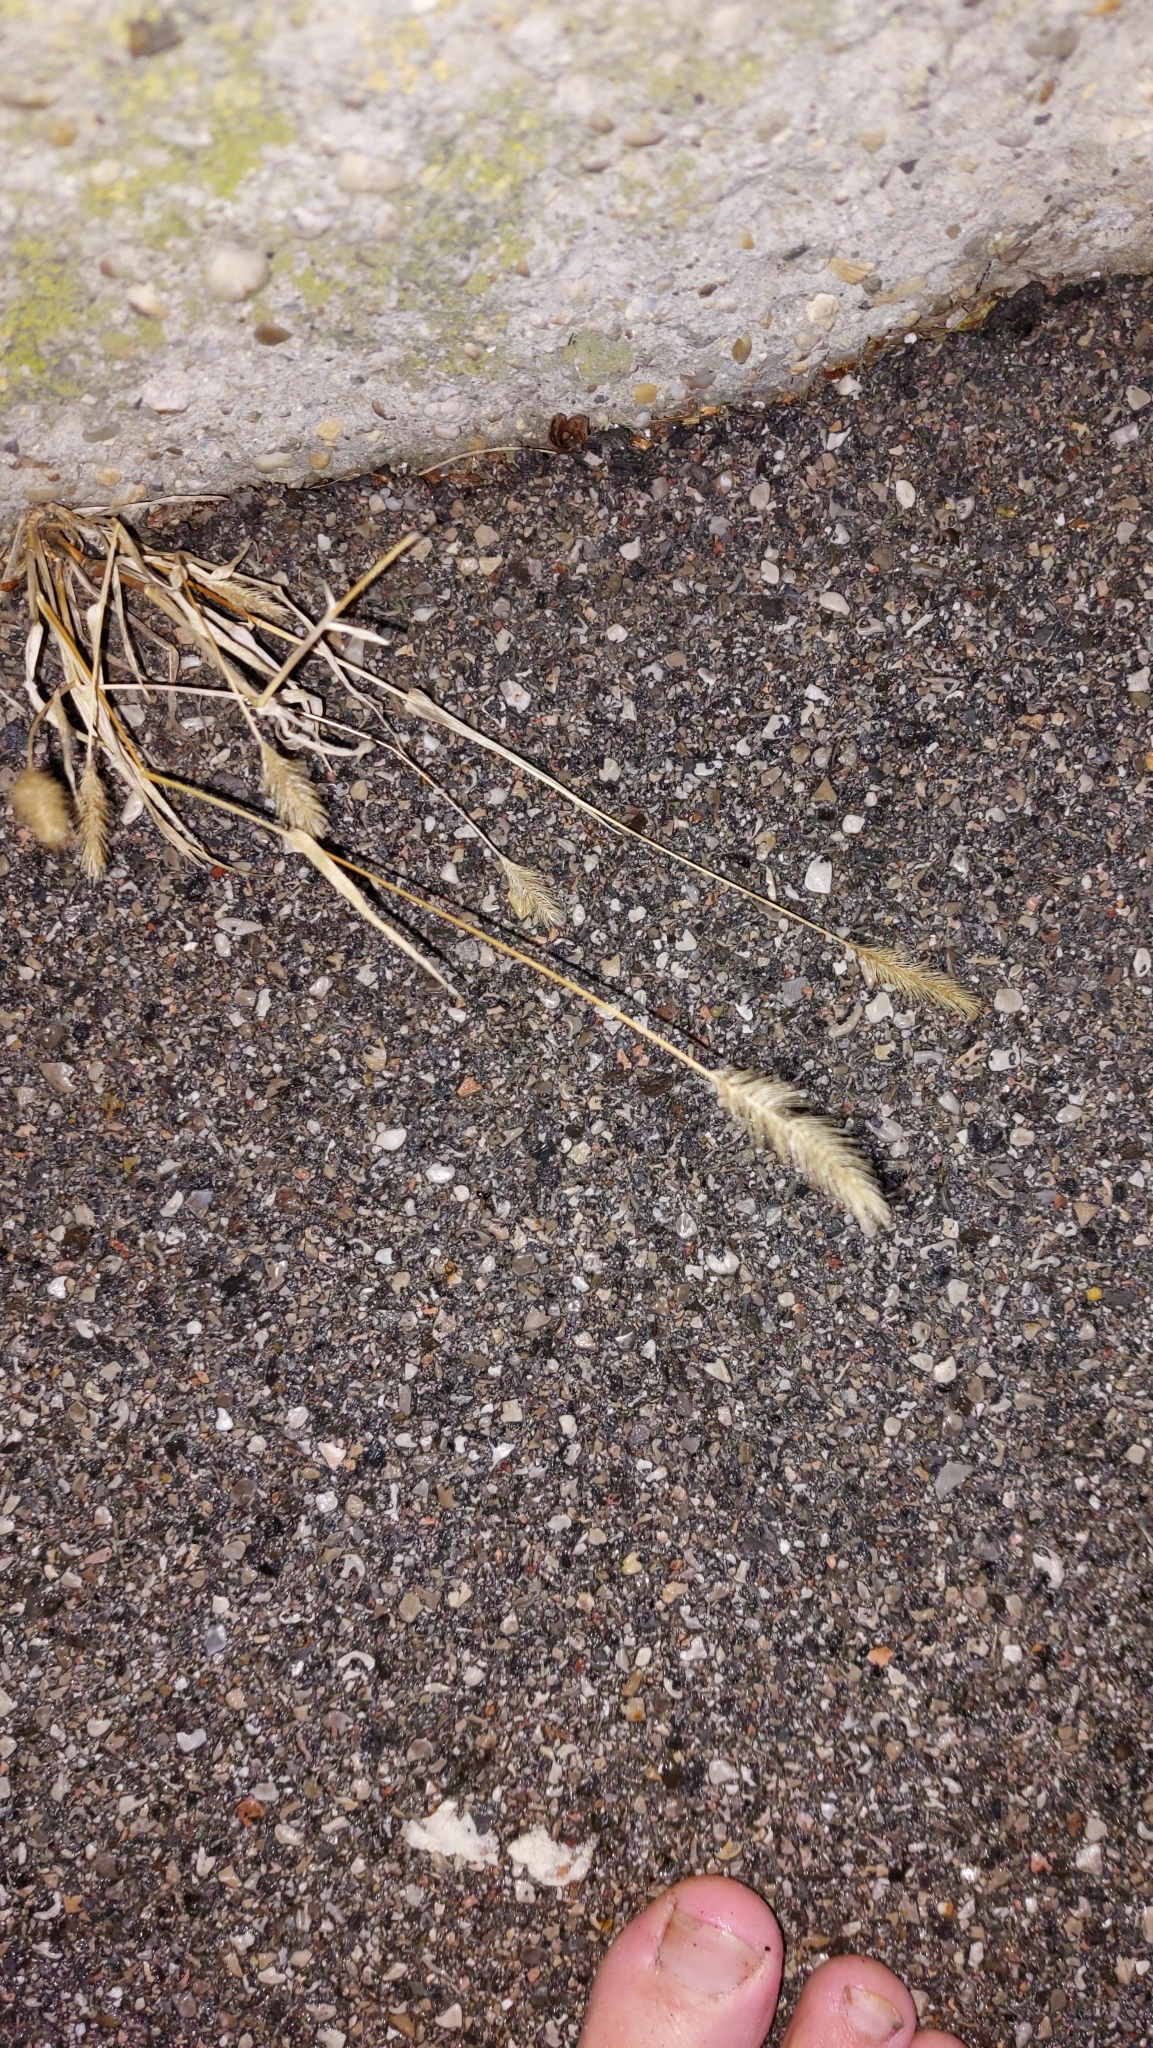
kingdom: Plantae
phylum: Tracheophyta
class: Liliopsida
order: Poales
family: Poaceae
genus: Setaria
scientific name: Setaria viridis
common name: Green bristlegrass
